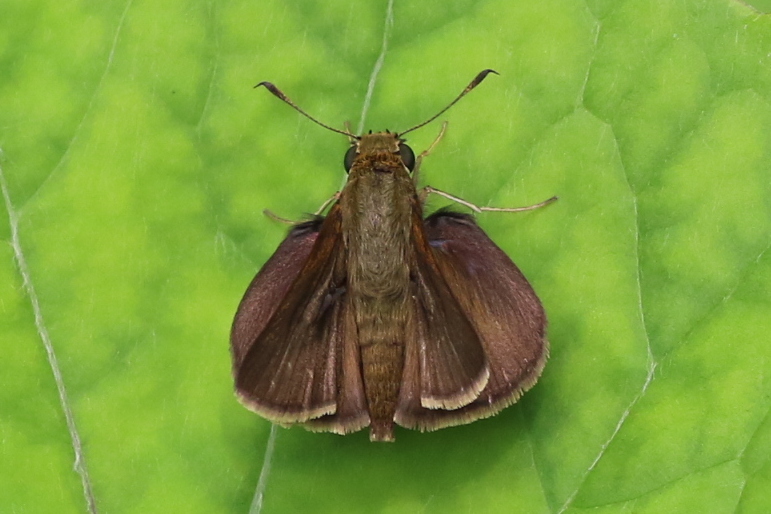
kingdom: Animalia
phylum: Arthropoda
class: Insecta
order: Lepidoptera
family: Hesperiidae
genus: Euphyes
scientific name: Euphyes vestris
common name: Dun skipper
